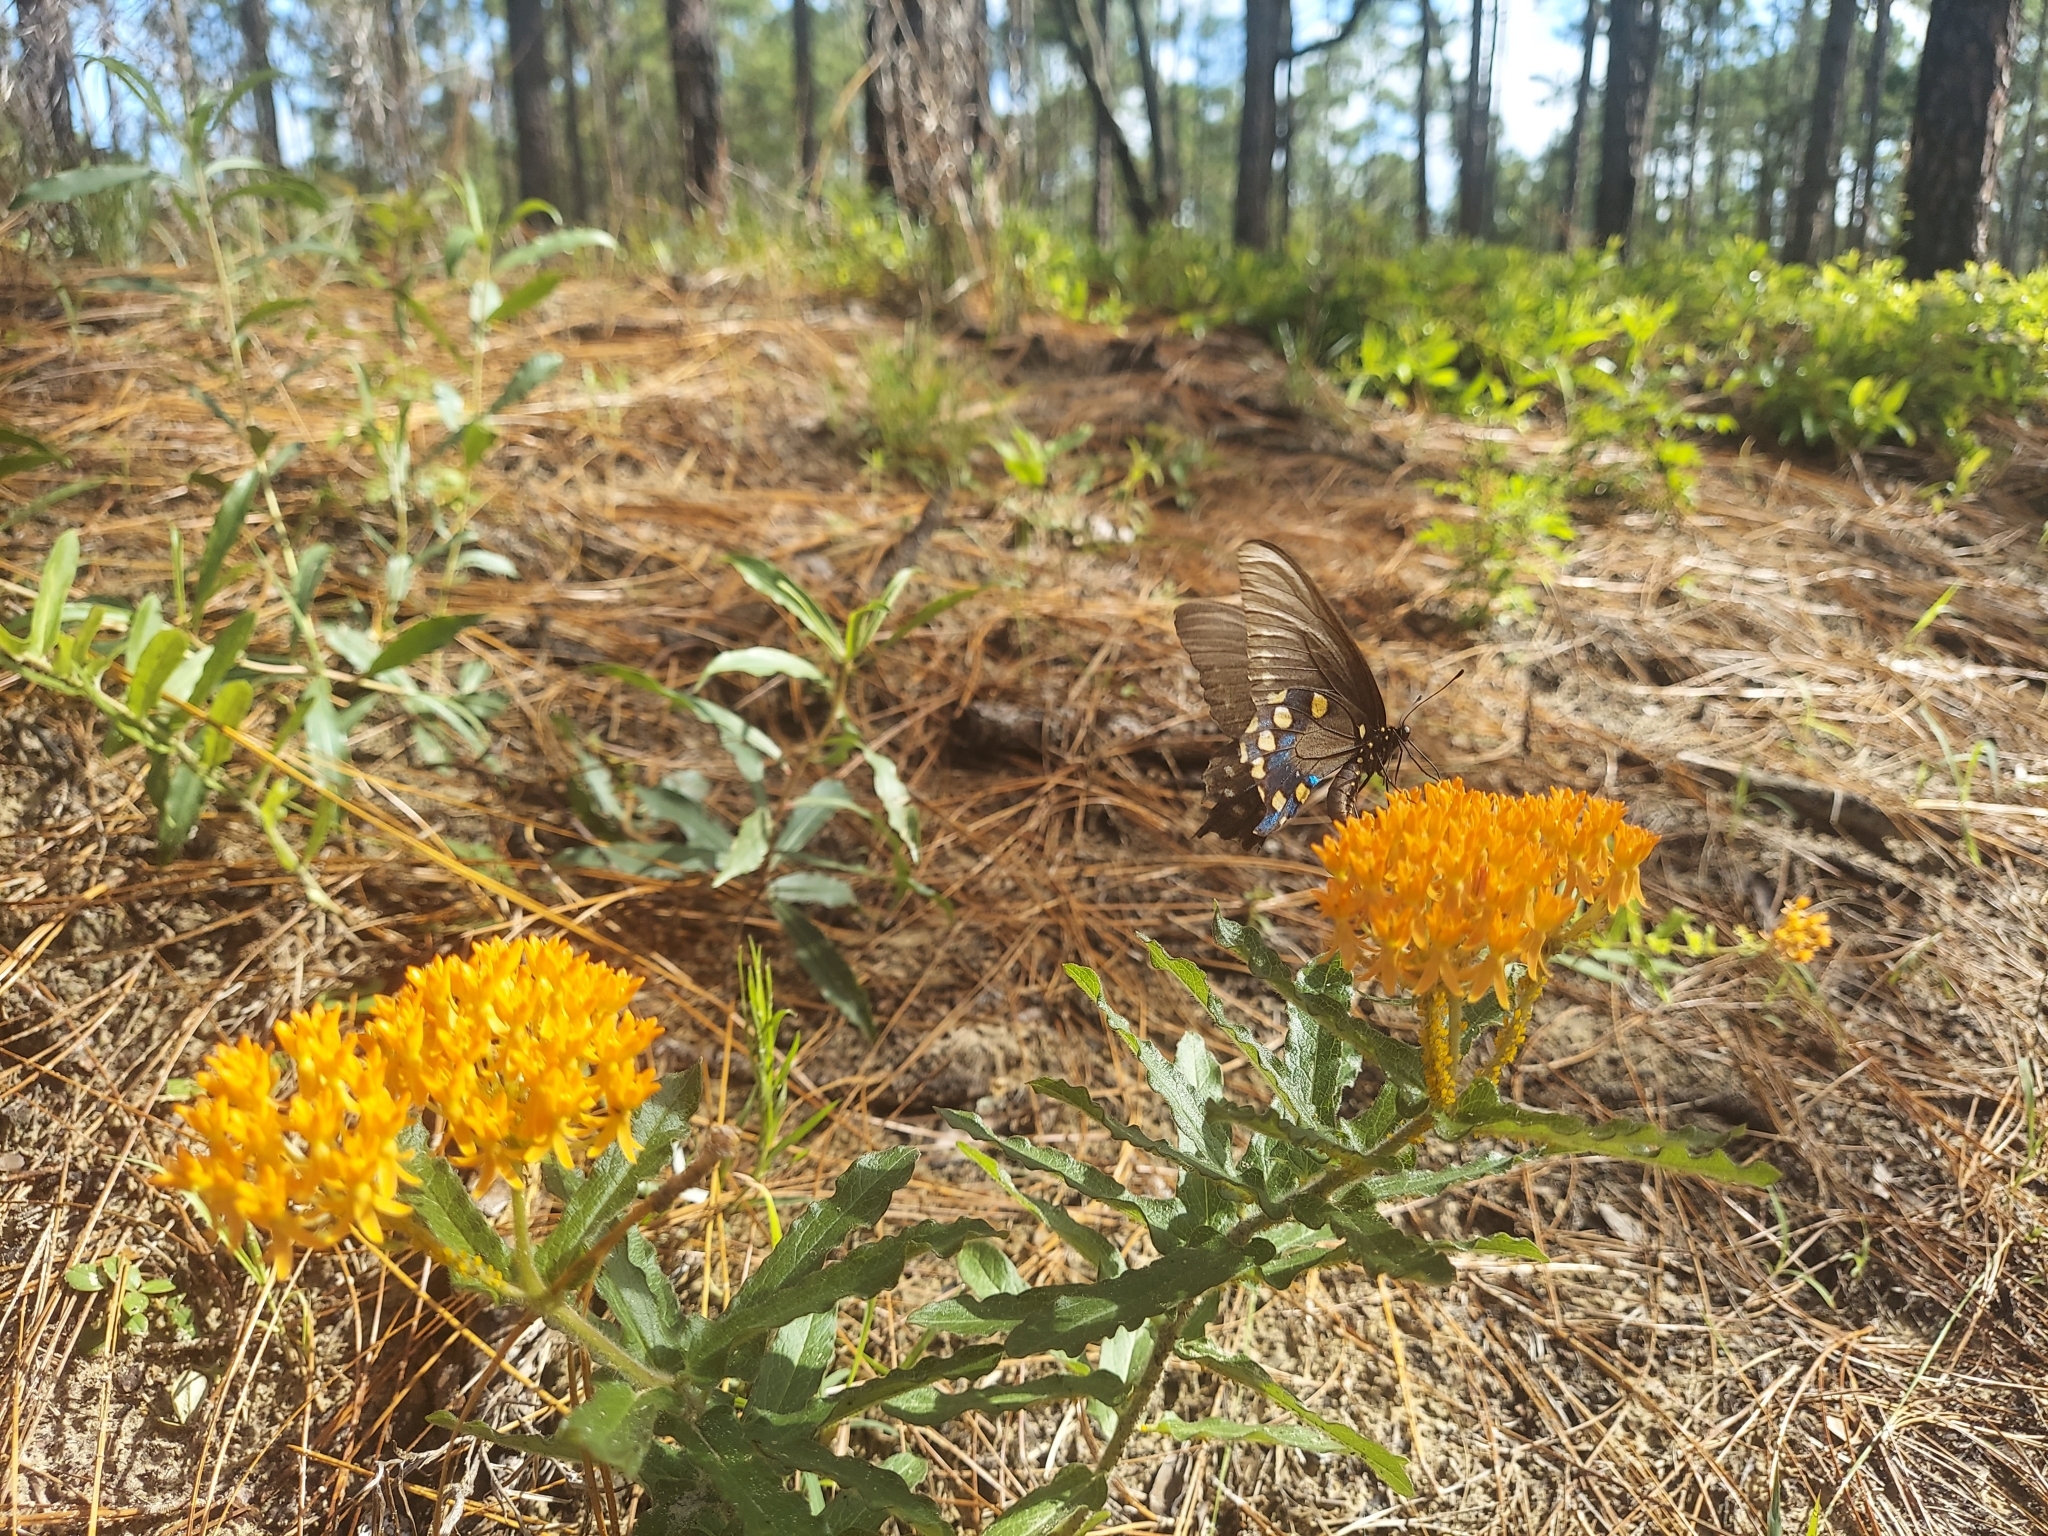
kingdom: Plantae
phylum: Tracheophyta
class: Magnoliopsida
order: Gentianales
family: Apocynaceae
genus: Asclepias
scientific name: Asclepias tuberosa
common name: Butterfly milkweed
